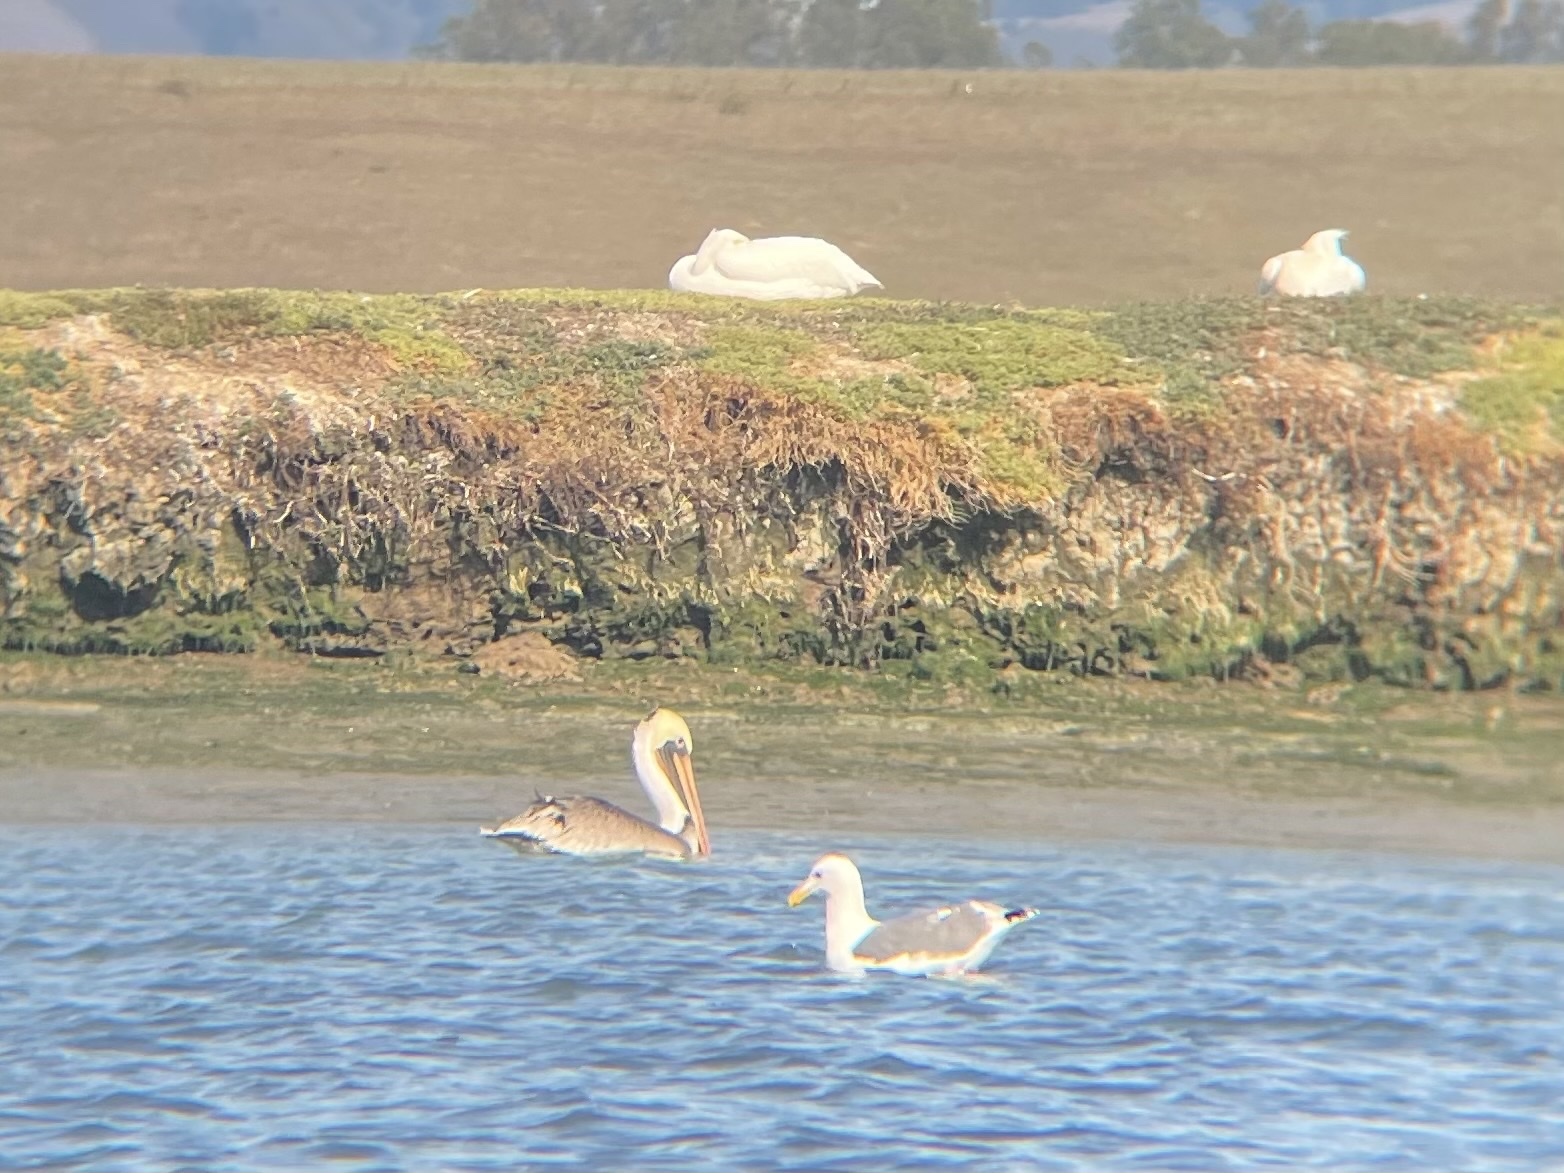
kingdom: Animalia
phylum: Chordata
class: Aves
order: Pelecaniformes
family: Pelecanidae
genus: Pelecanus
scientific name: Pelecanus erythrorhynchos
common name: American white pelican
